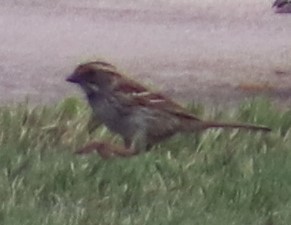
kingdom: Animalia
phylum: Chordata
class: Aves
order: Passeriformes
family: Passerellidae
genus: Zonotrichia
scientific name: Zonotrichia albicollis
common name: White-throated sparrow
